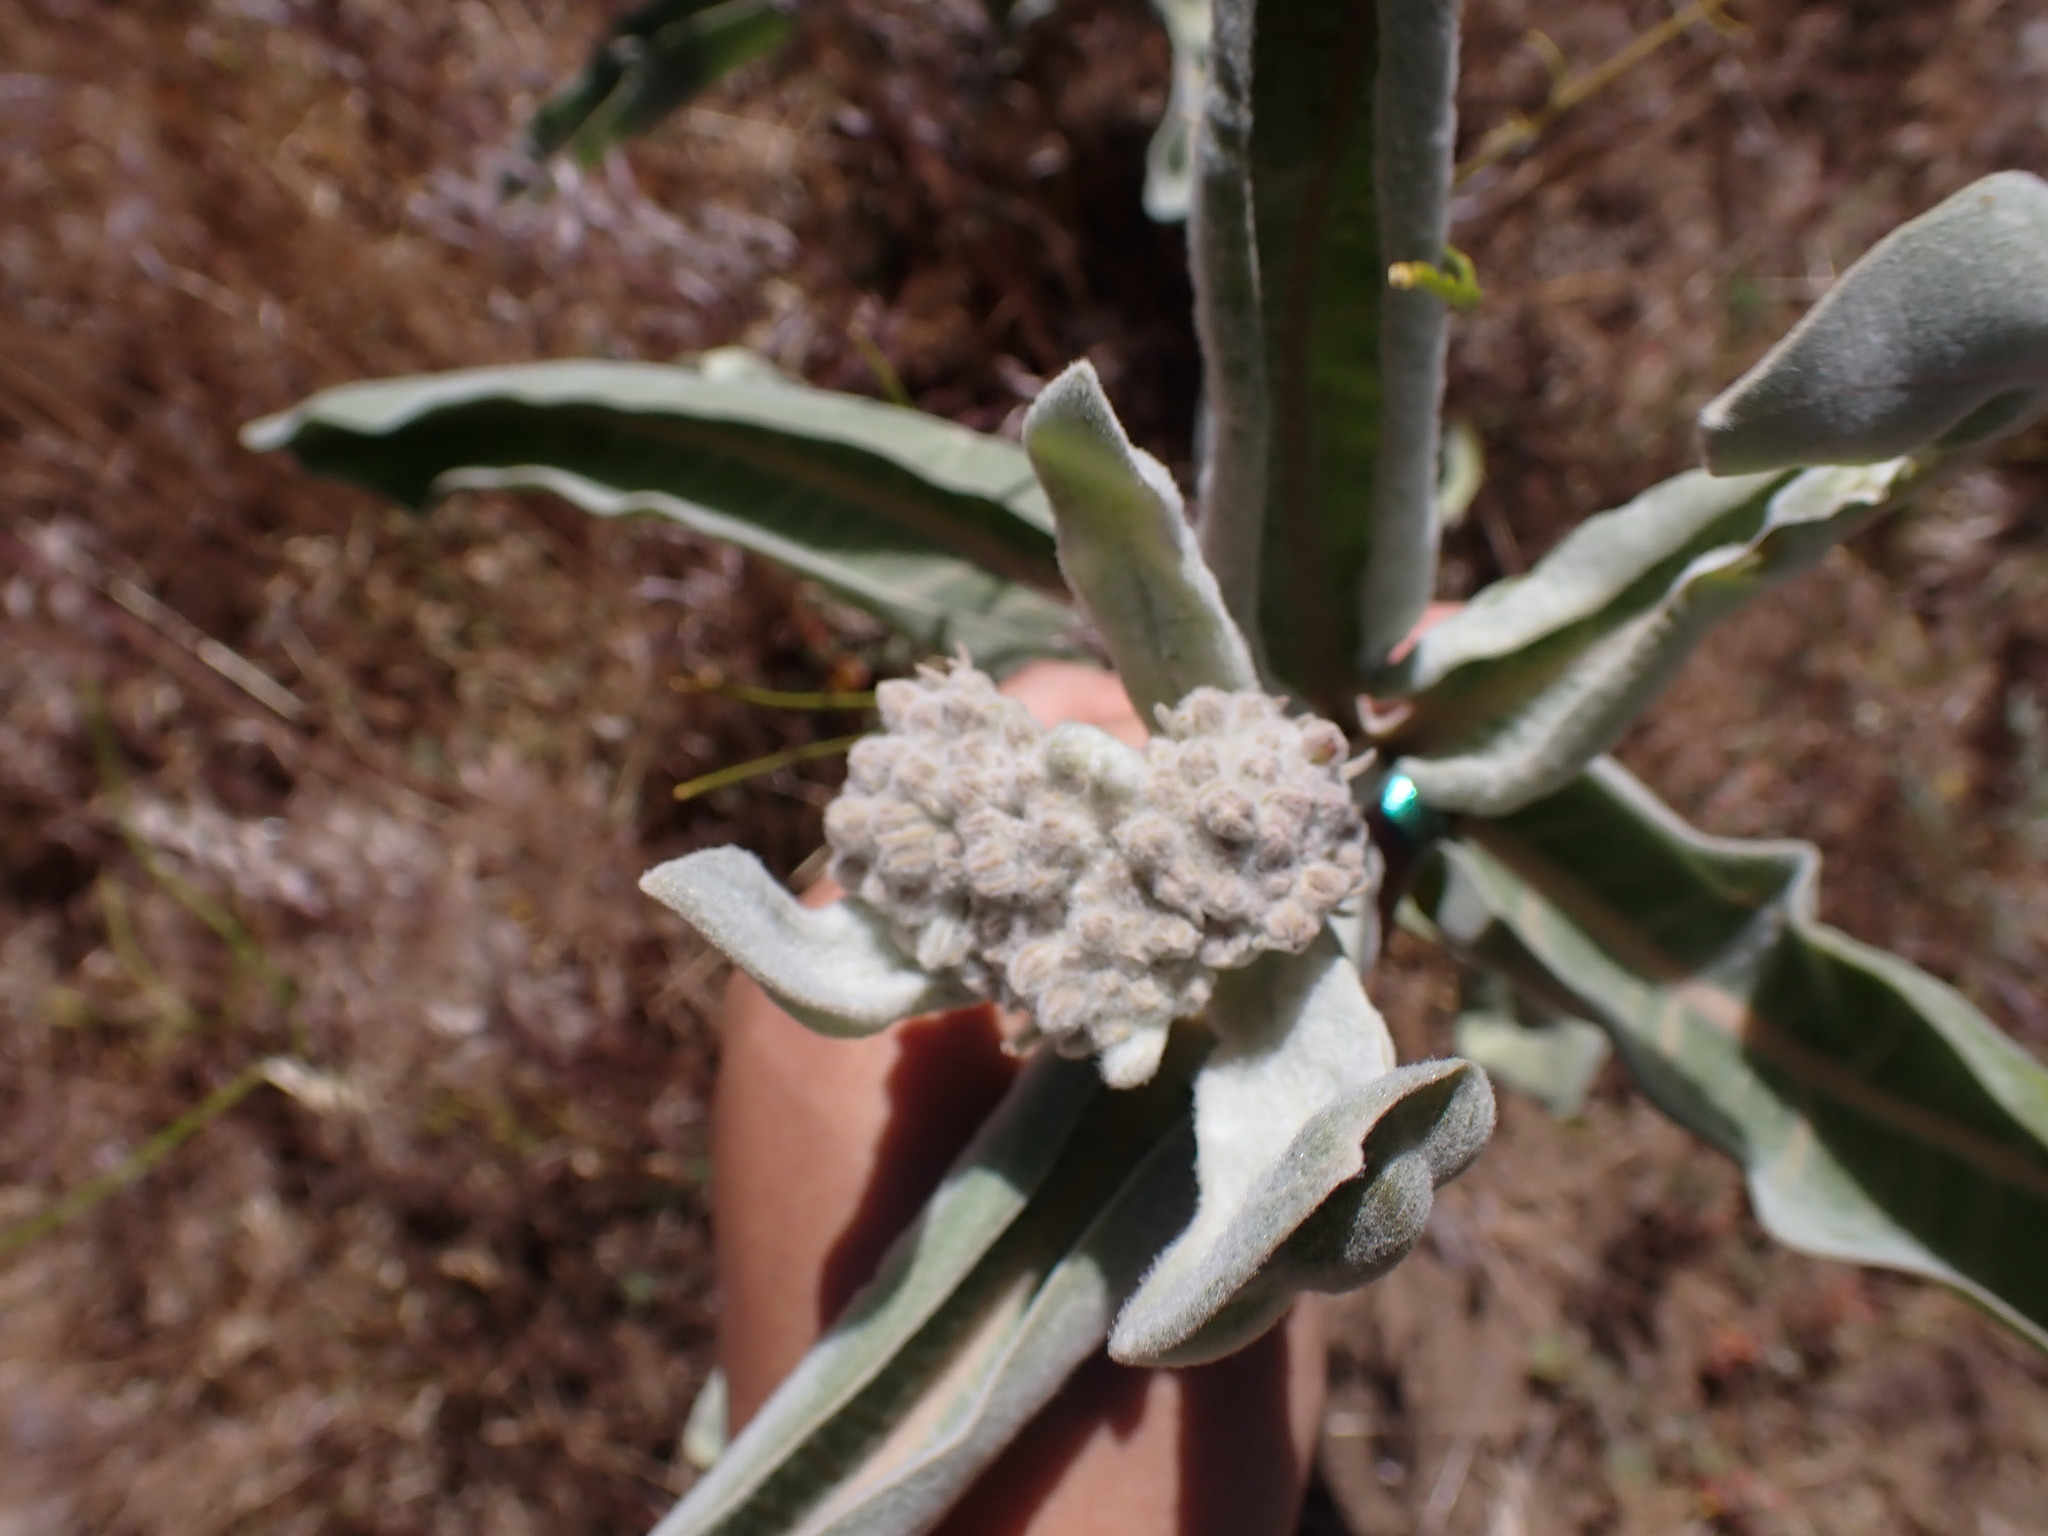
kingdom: Plantae
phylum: Tracheophyta
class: Magnoliopsida
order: Gentianales
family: Apocynaceae
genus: Asclepias
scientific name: Asclepias eriocarpa
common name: Indian milkweed
